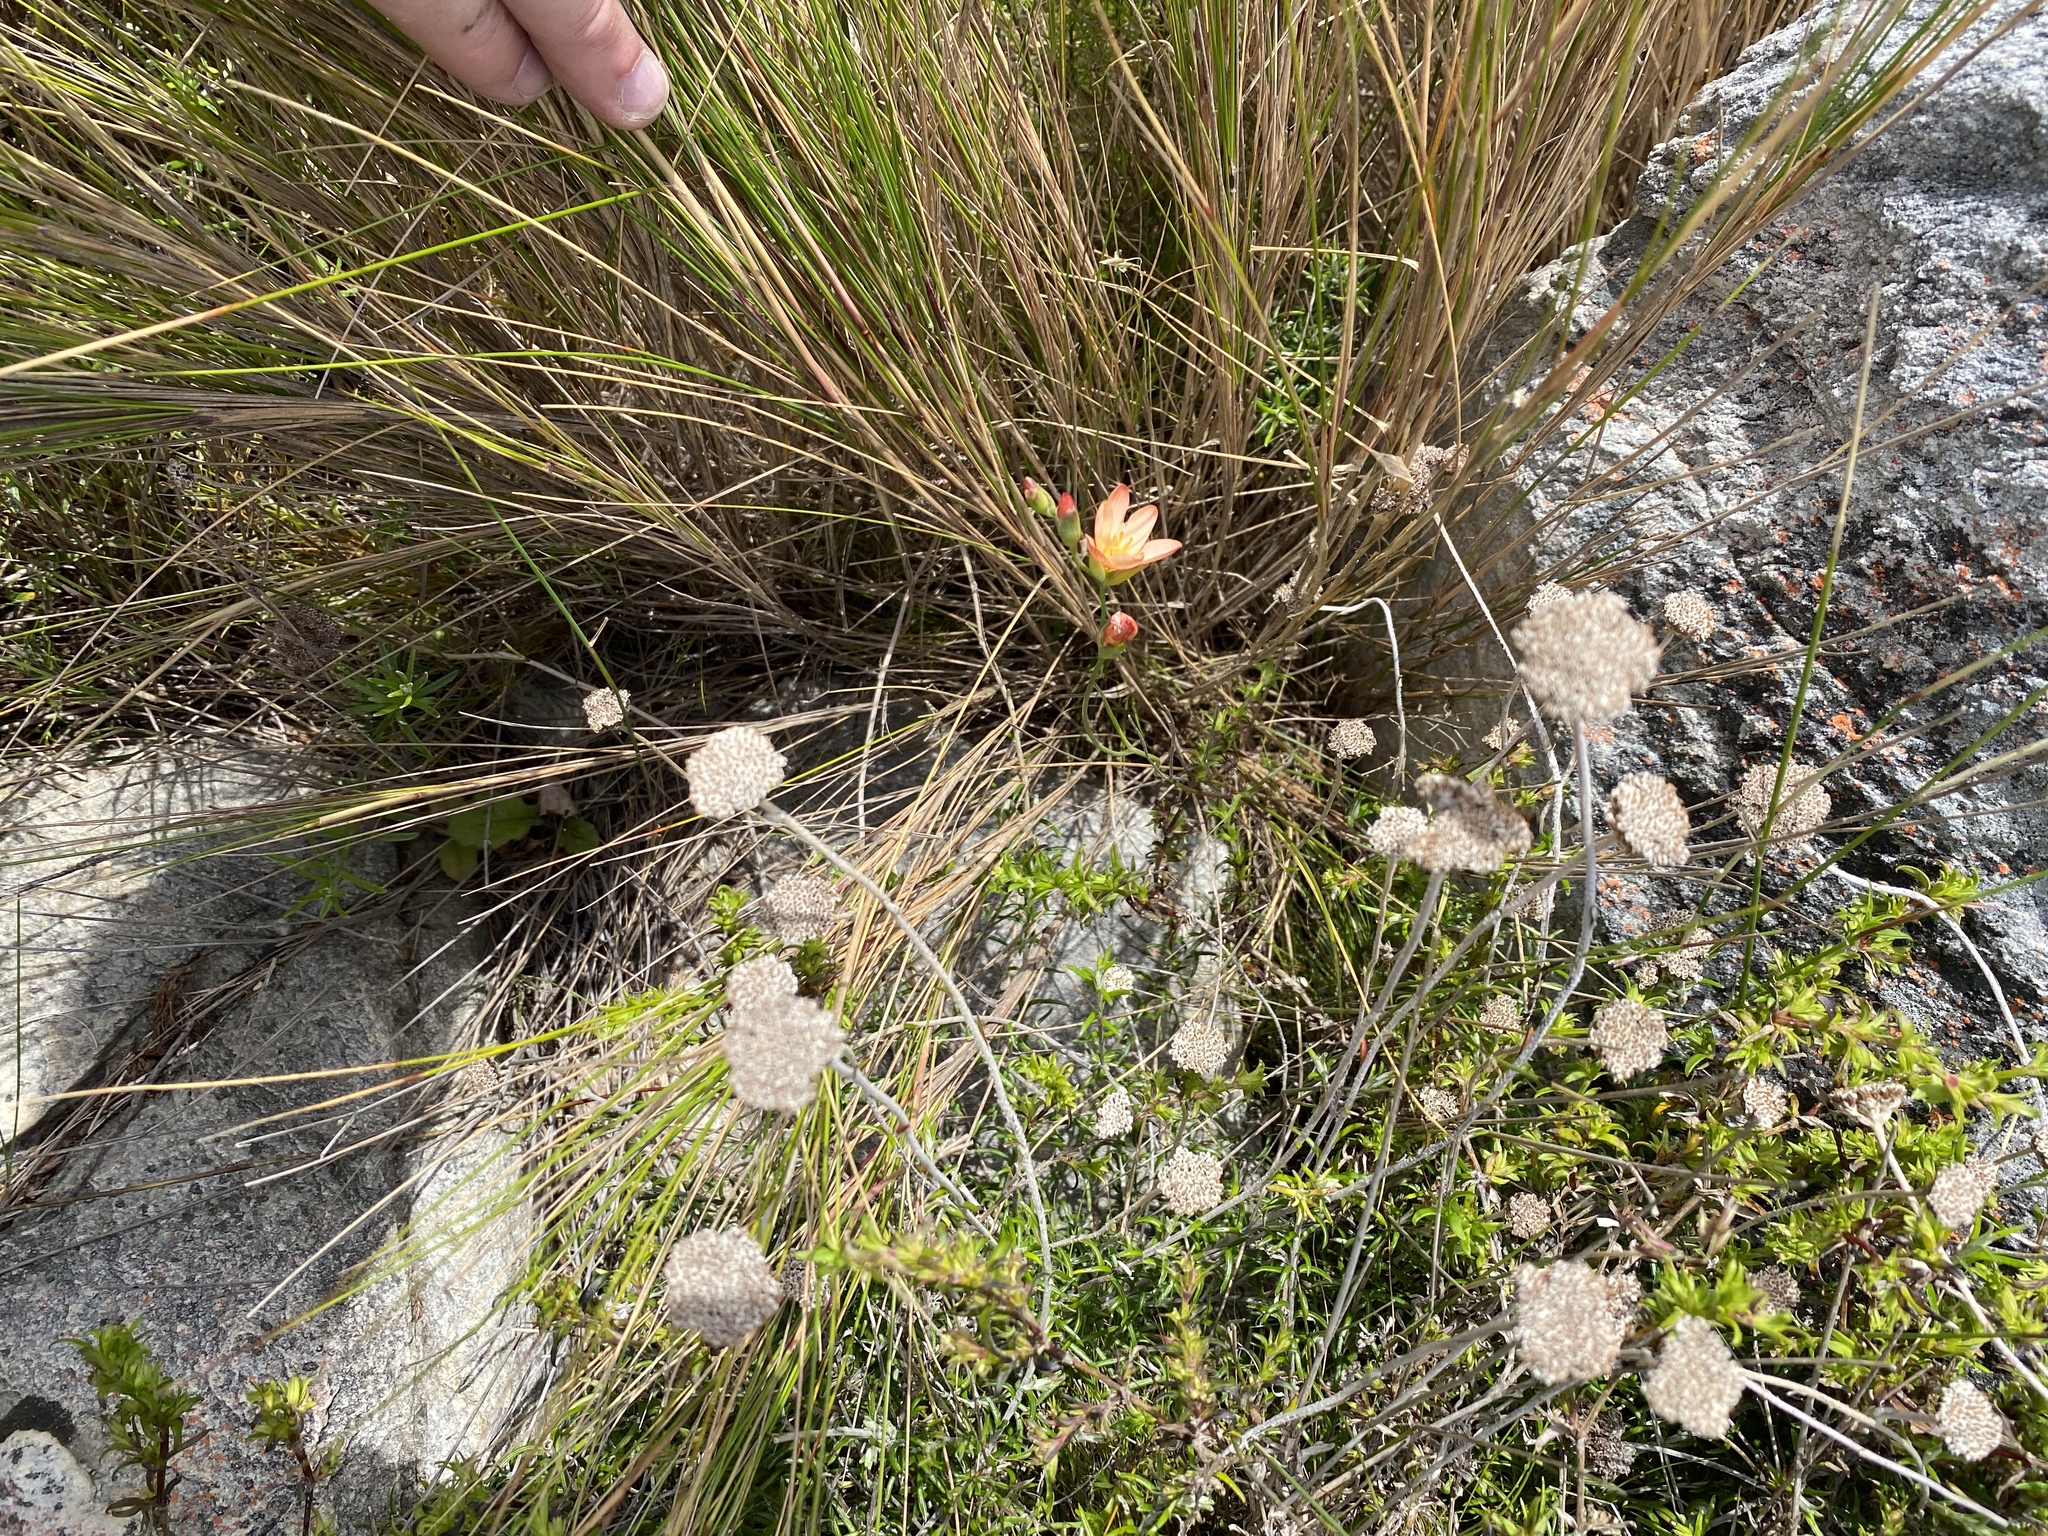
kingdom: Plantae
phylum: Tracheophyta
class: Magnoliopsida
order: Ericales
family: Ericaceae
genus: Erica
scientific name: Erica holosericea
